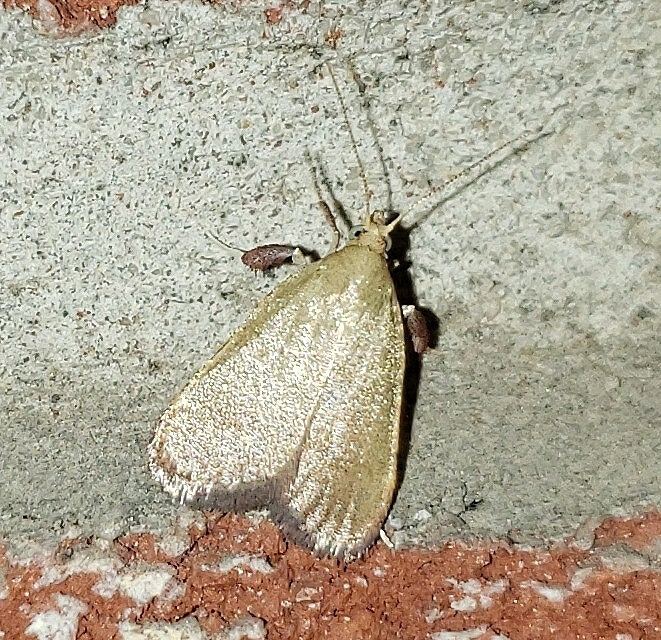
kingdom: Animalia
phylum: Arthropoda
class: Insecta
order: Lepidoptera
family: Pyralidae
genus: Condylolomia
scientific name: Condylolomia participialis
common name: Drab condylolomia moth
